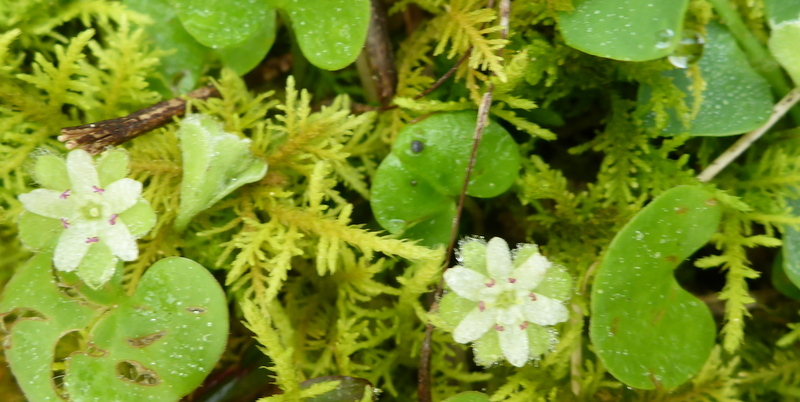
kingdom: Plantae
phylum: Tracheophyta
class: Magnoliopsida
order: Solanales
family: Convolvulaceae
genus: Dichondra
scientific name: Dichondra carolinensis
